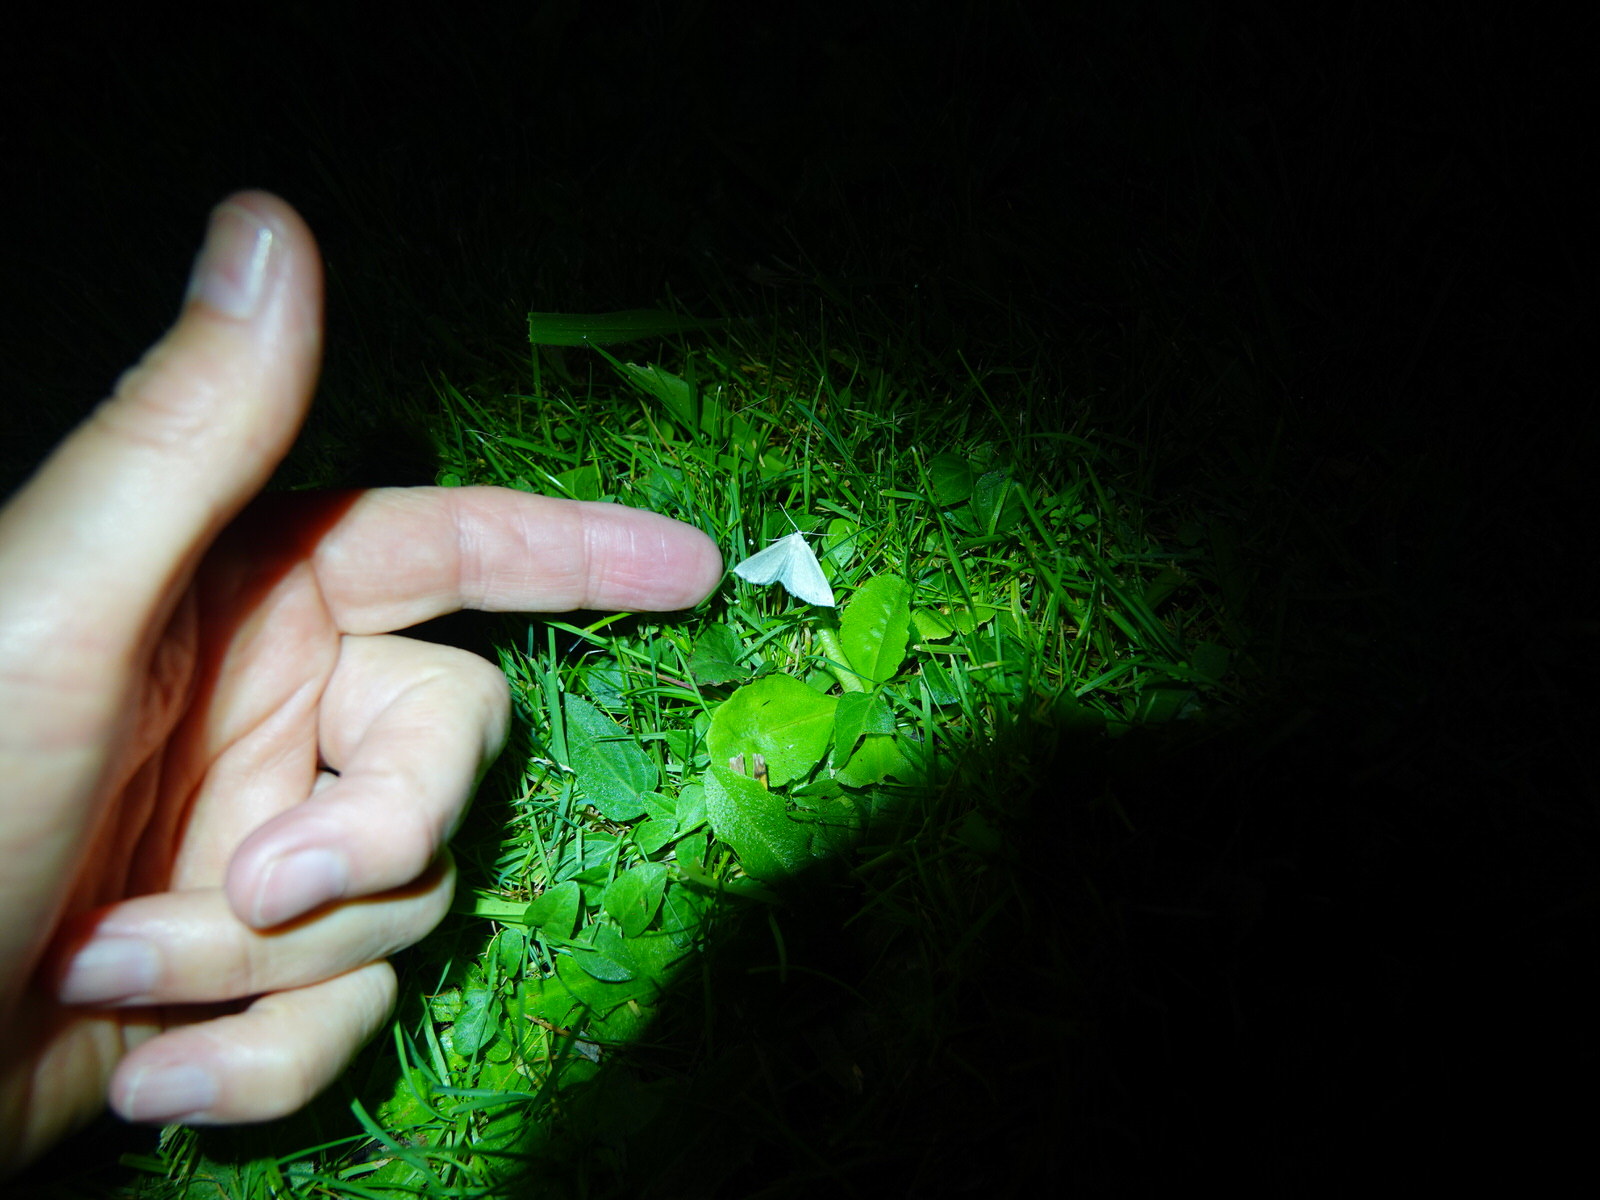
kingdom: Animalia
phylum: Arthropoda
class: Insecta
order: Lepidoptera
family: Geometridae
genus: Poecilasthena
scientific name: Poecilasthena pulchraria
